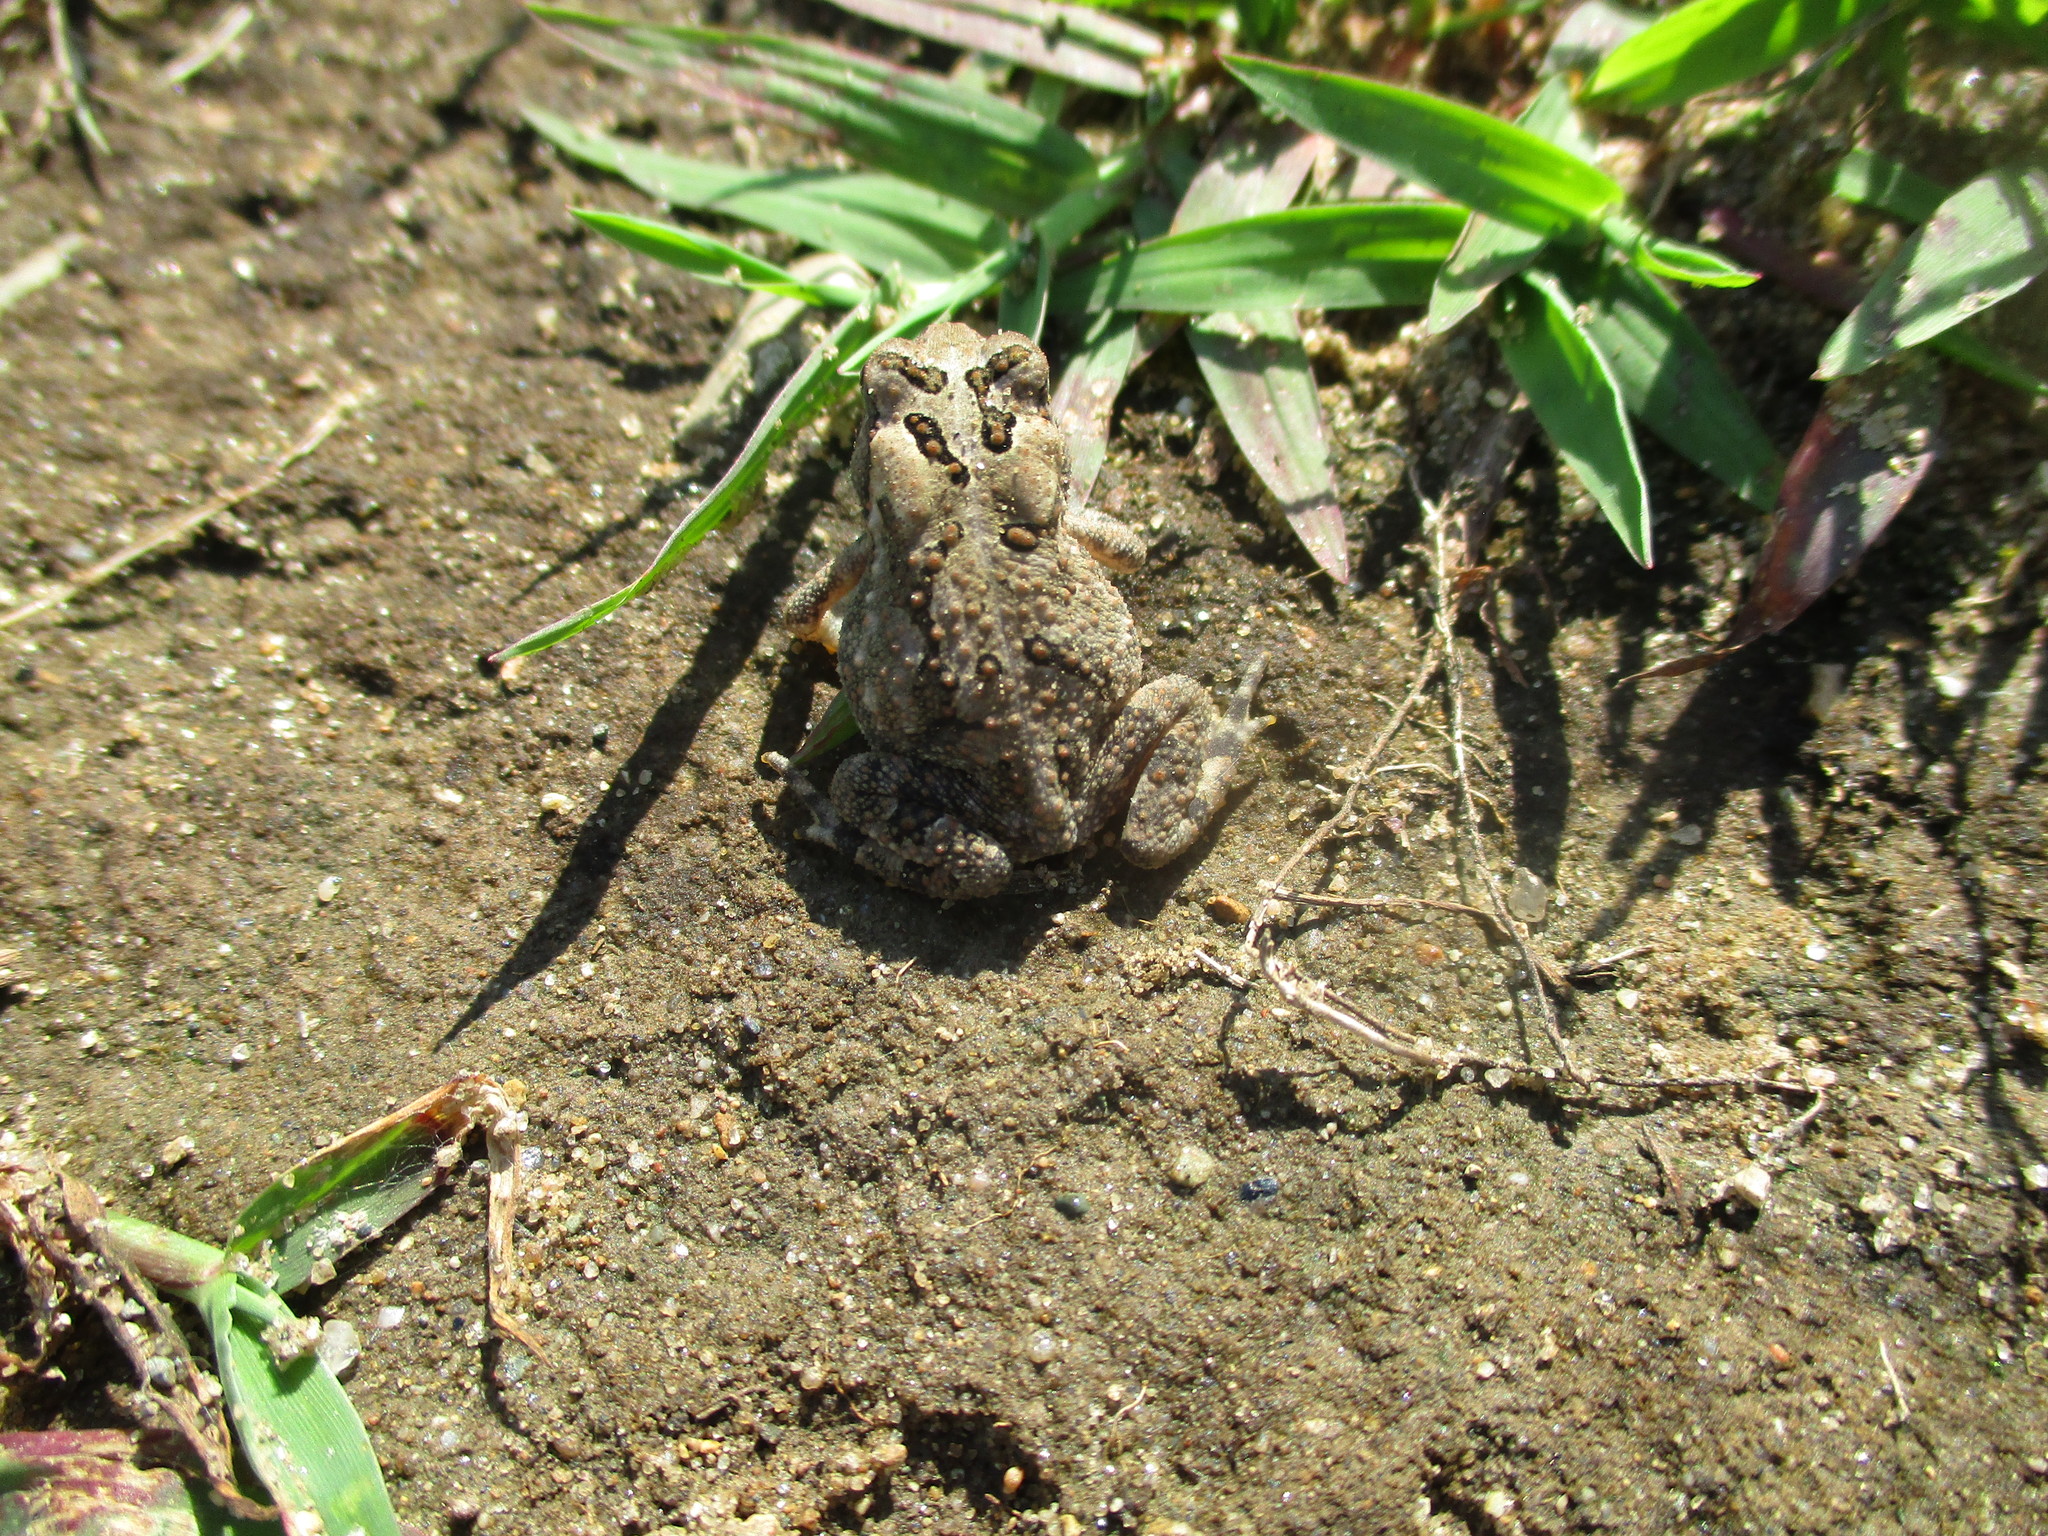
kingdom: Animalia
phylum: Chordata
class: Amphibia
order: Anura
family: Bufonidae
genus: Anaxyrus
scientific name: Anaxyrus americanus
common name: American toad
